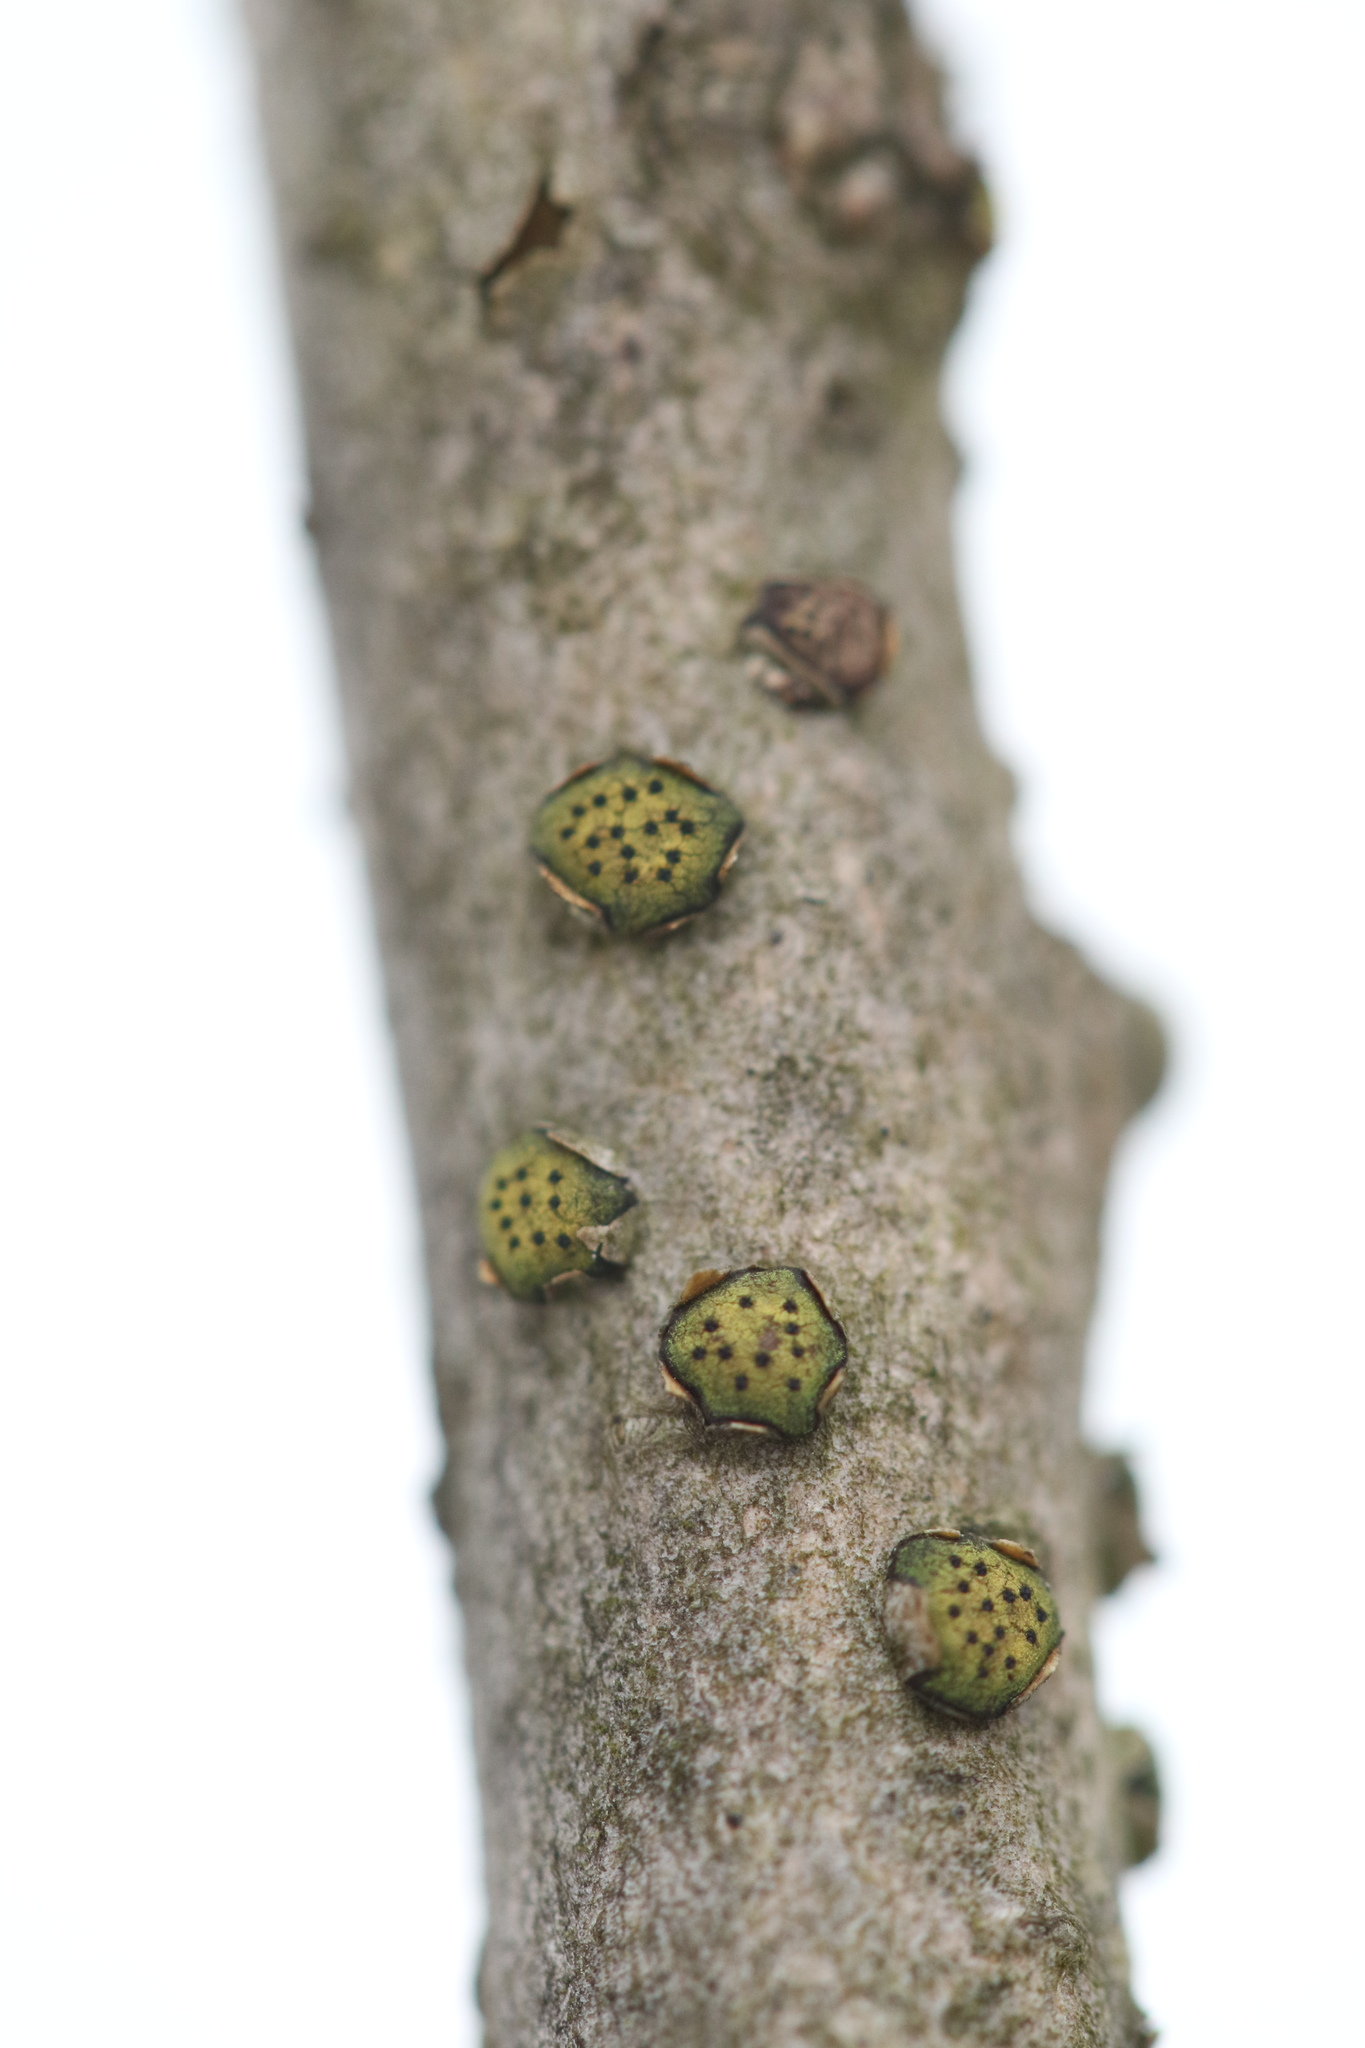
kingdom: Fungi
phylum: Ascomycota
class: Sordariomycetes
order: Xylariales
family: Diatrypaceae
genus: Diatrype
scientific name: Diatrype virescens
